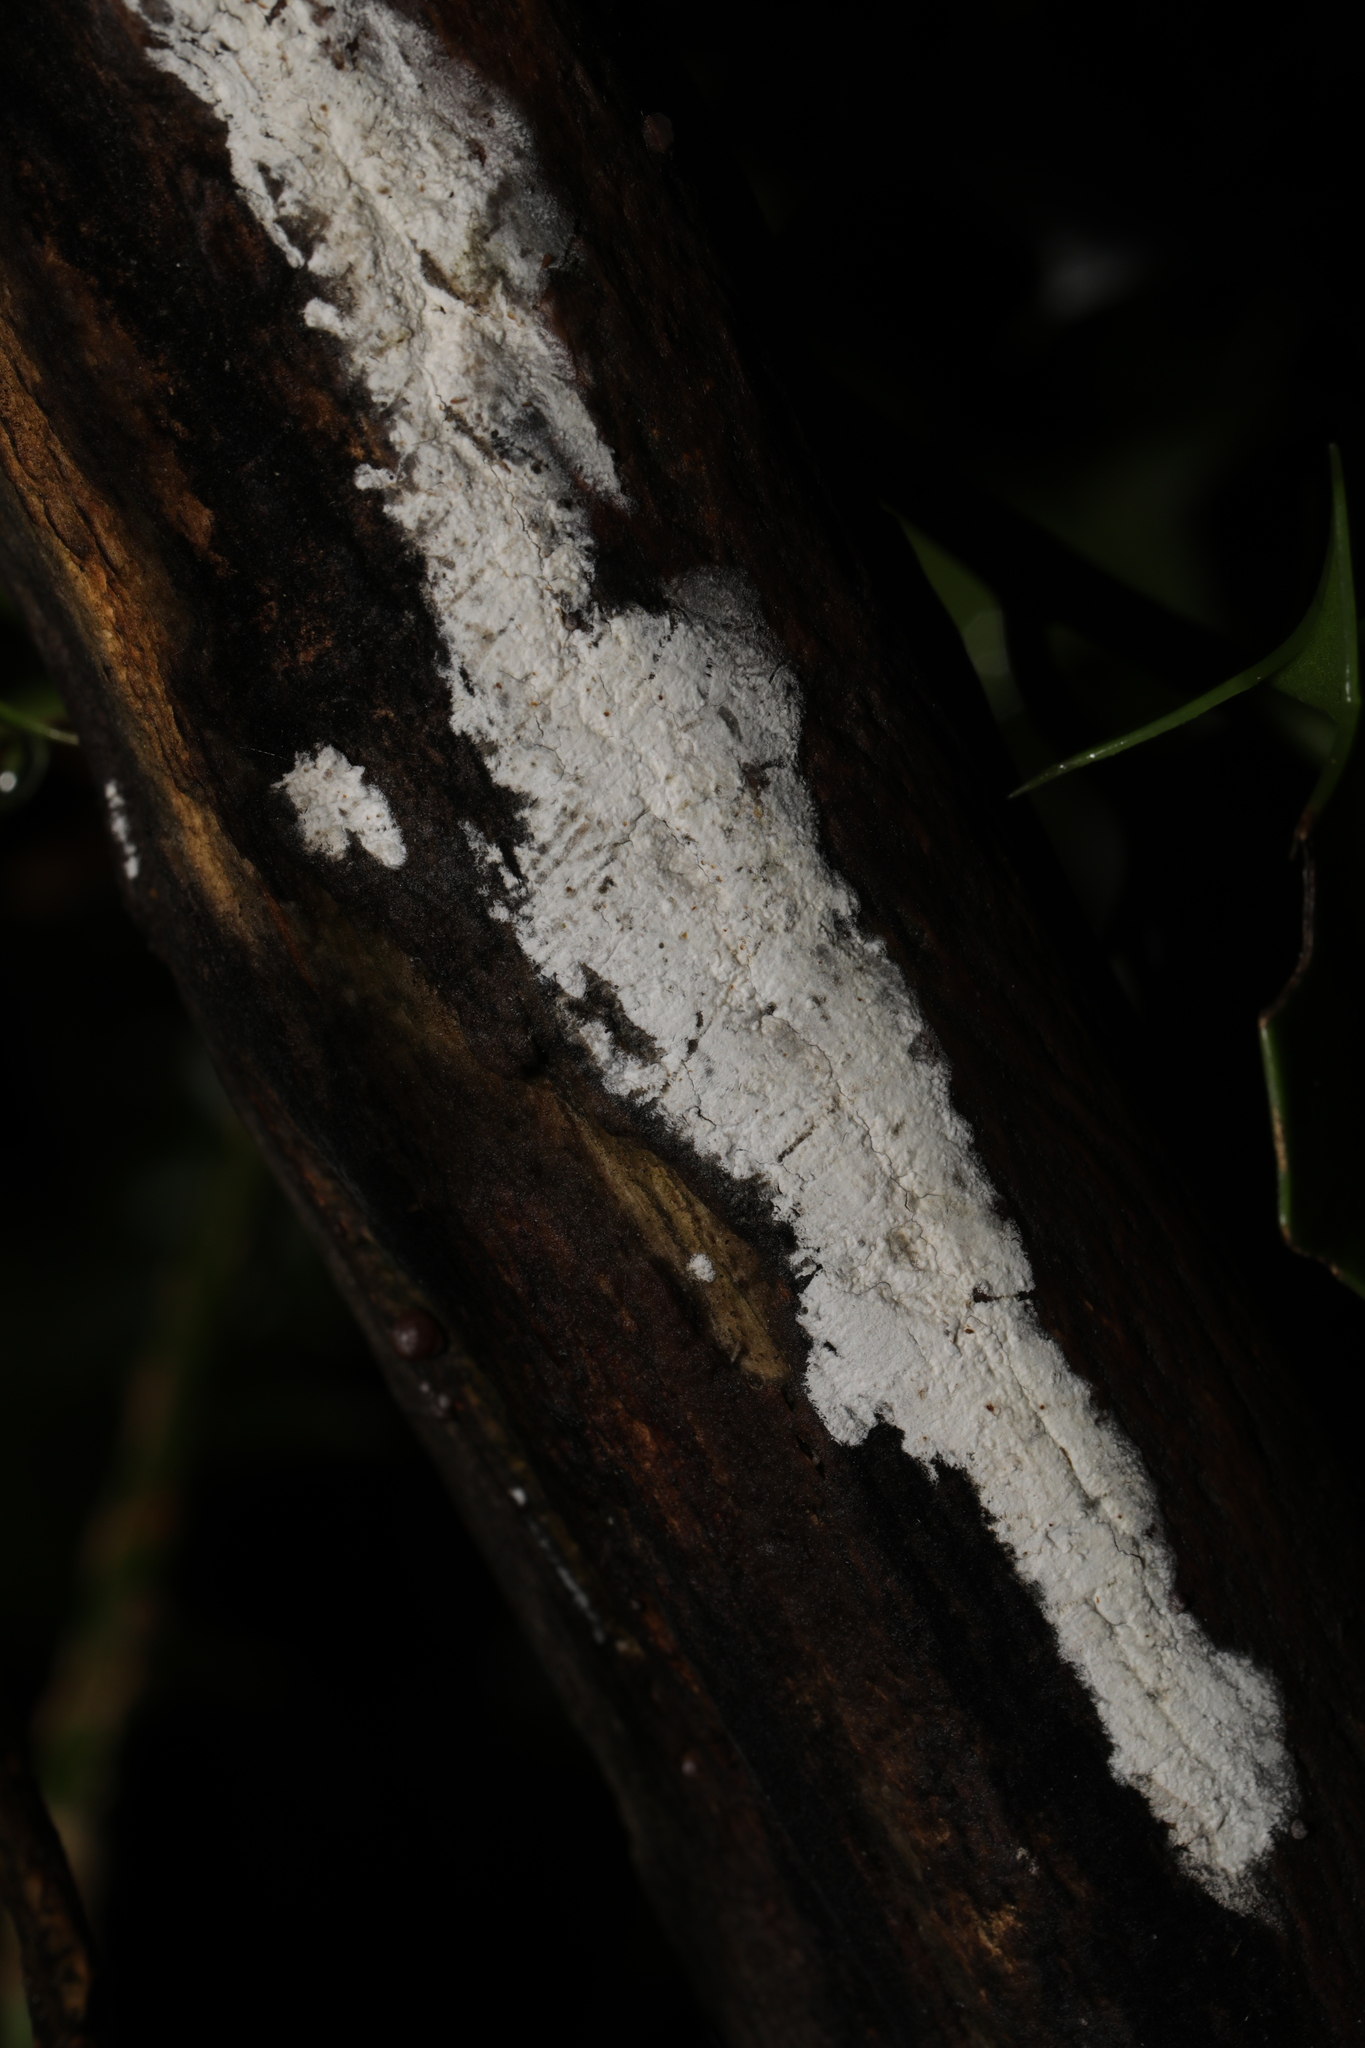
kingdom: Fungi
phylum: Basidiomycota
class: Agaricomycetes
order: Corticiales
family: Corticiaceae
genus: Lyomyces
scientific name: Lyomyces sambuci
